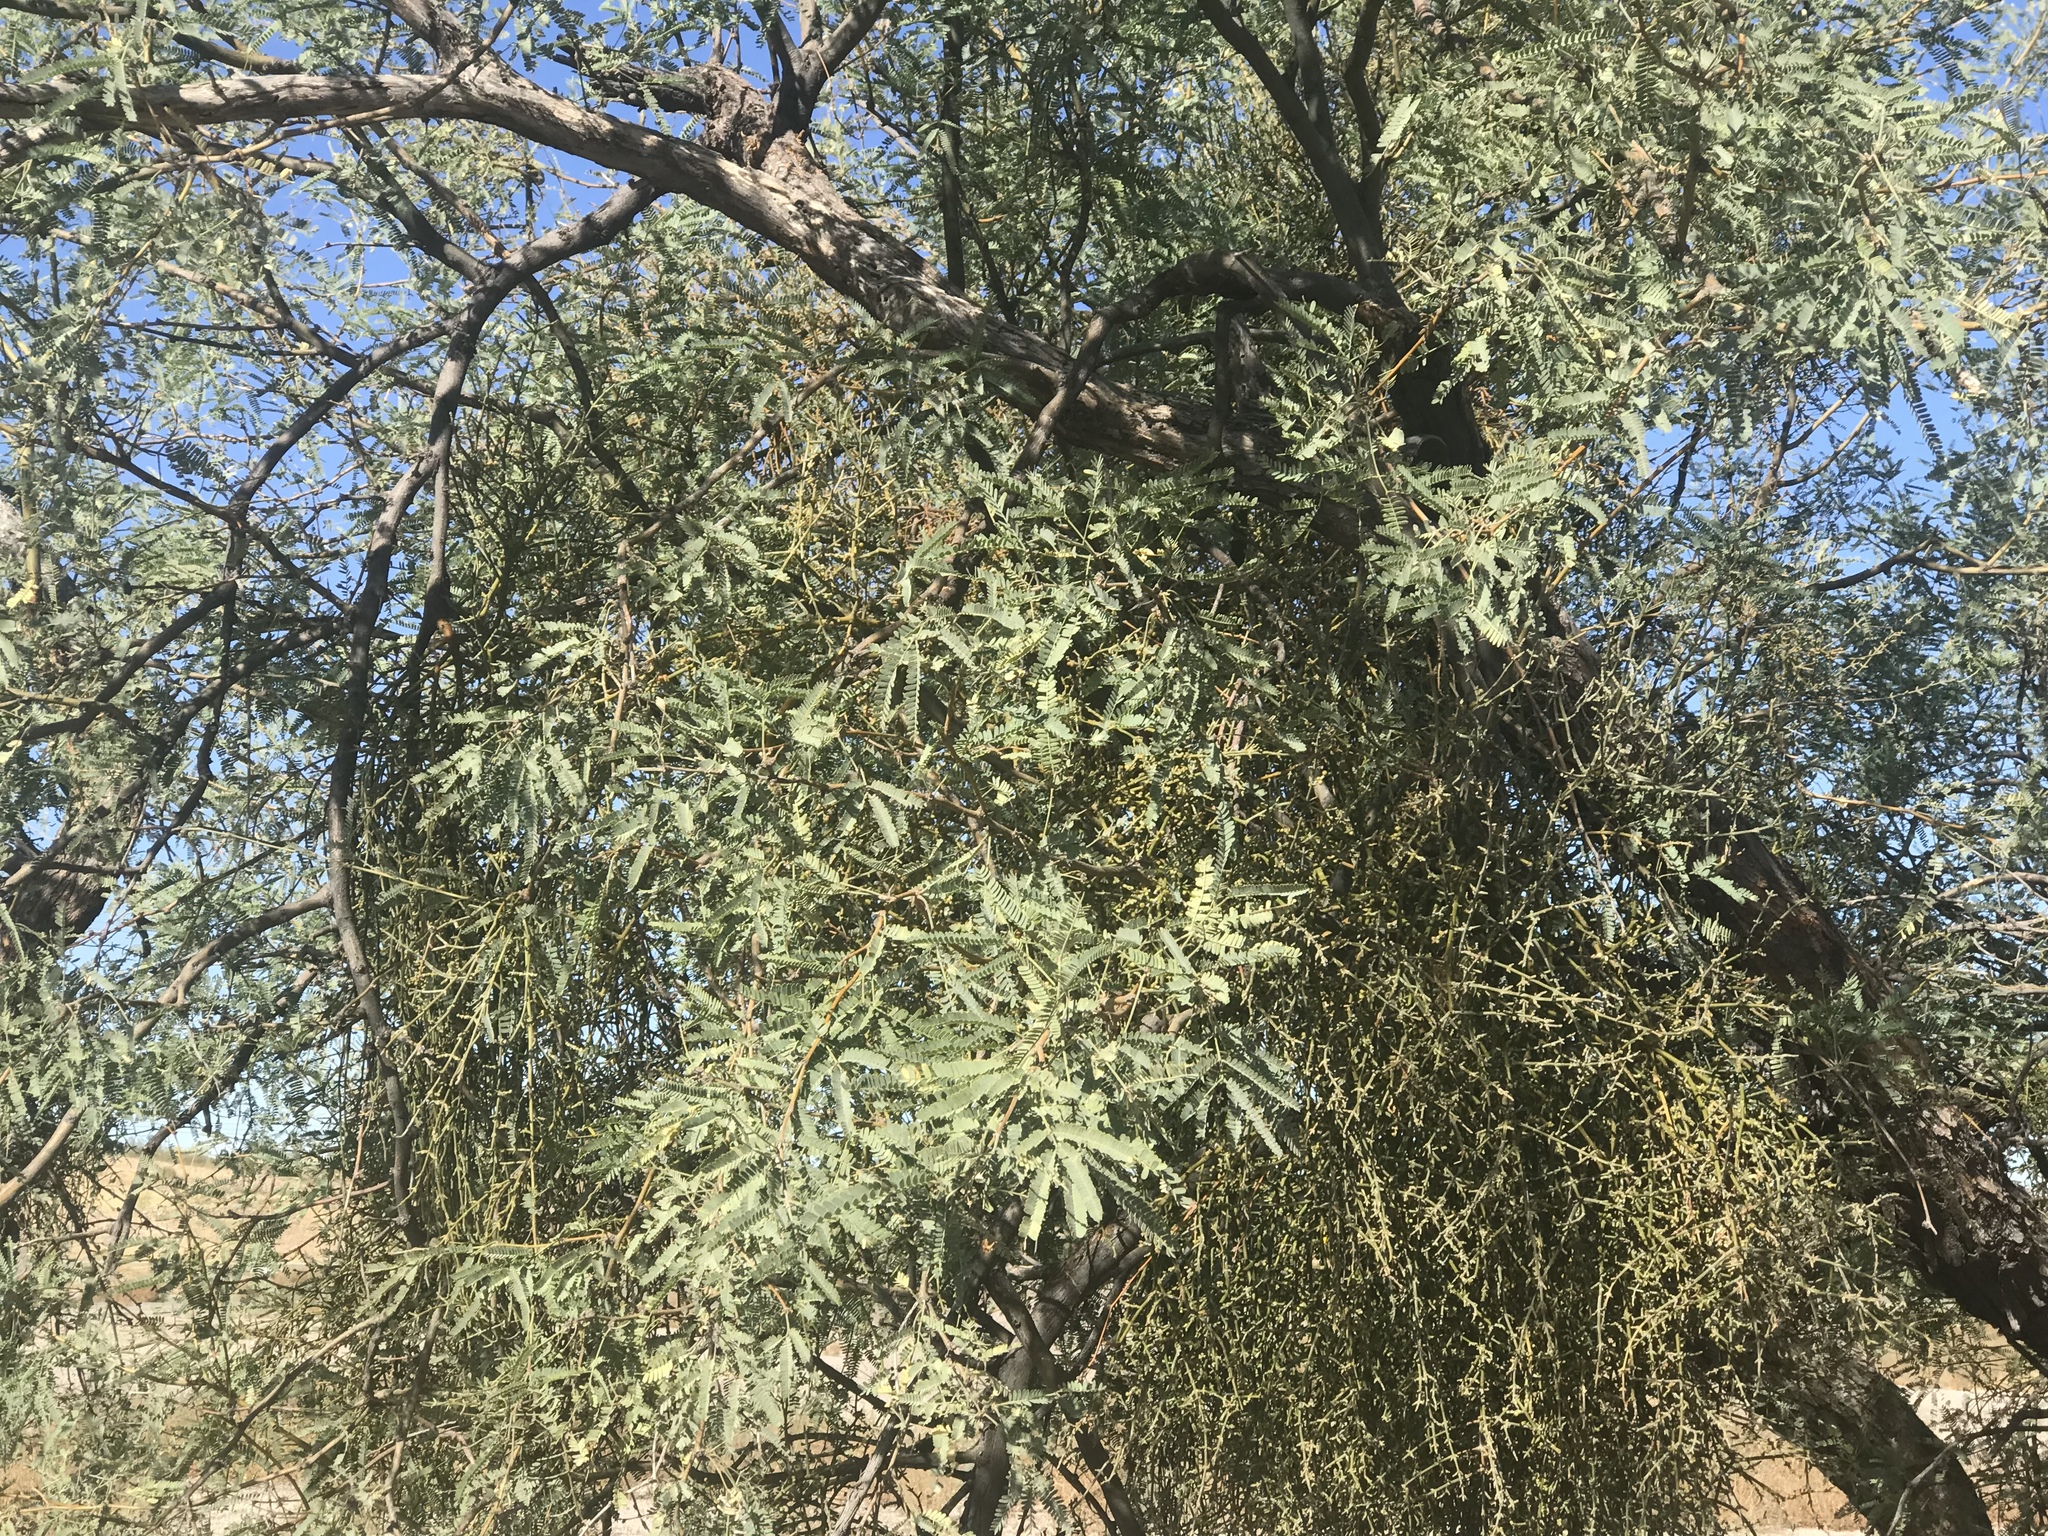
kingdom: Plantae
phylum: Tracheophyta
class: Magnoliopsida
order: Fabales
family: Fabaceae
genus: Prosopis
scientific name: Prosopis velutina
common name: Velvet mesquite
